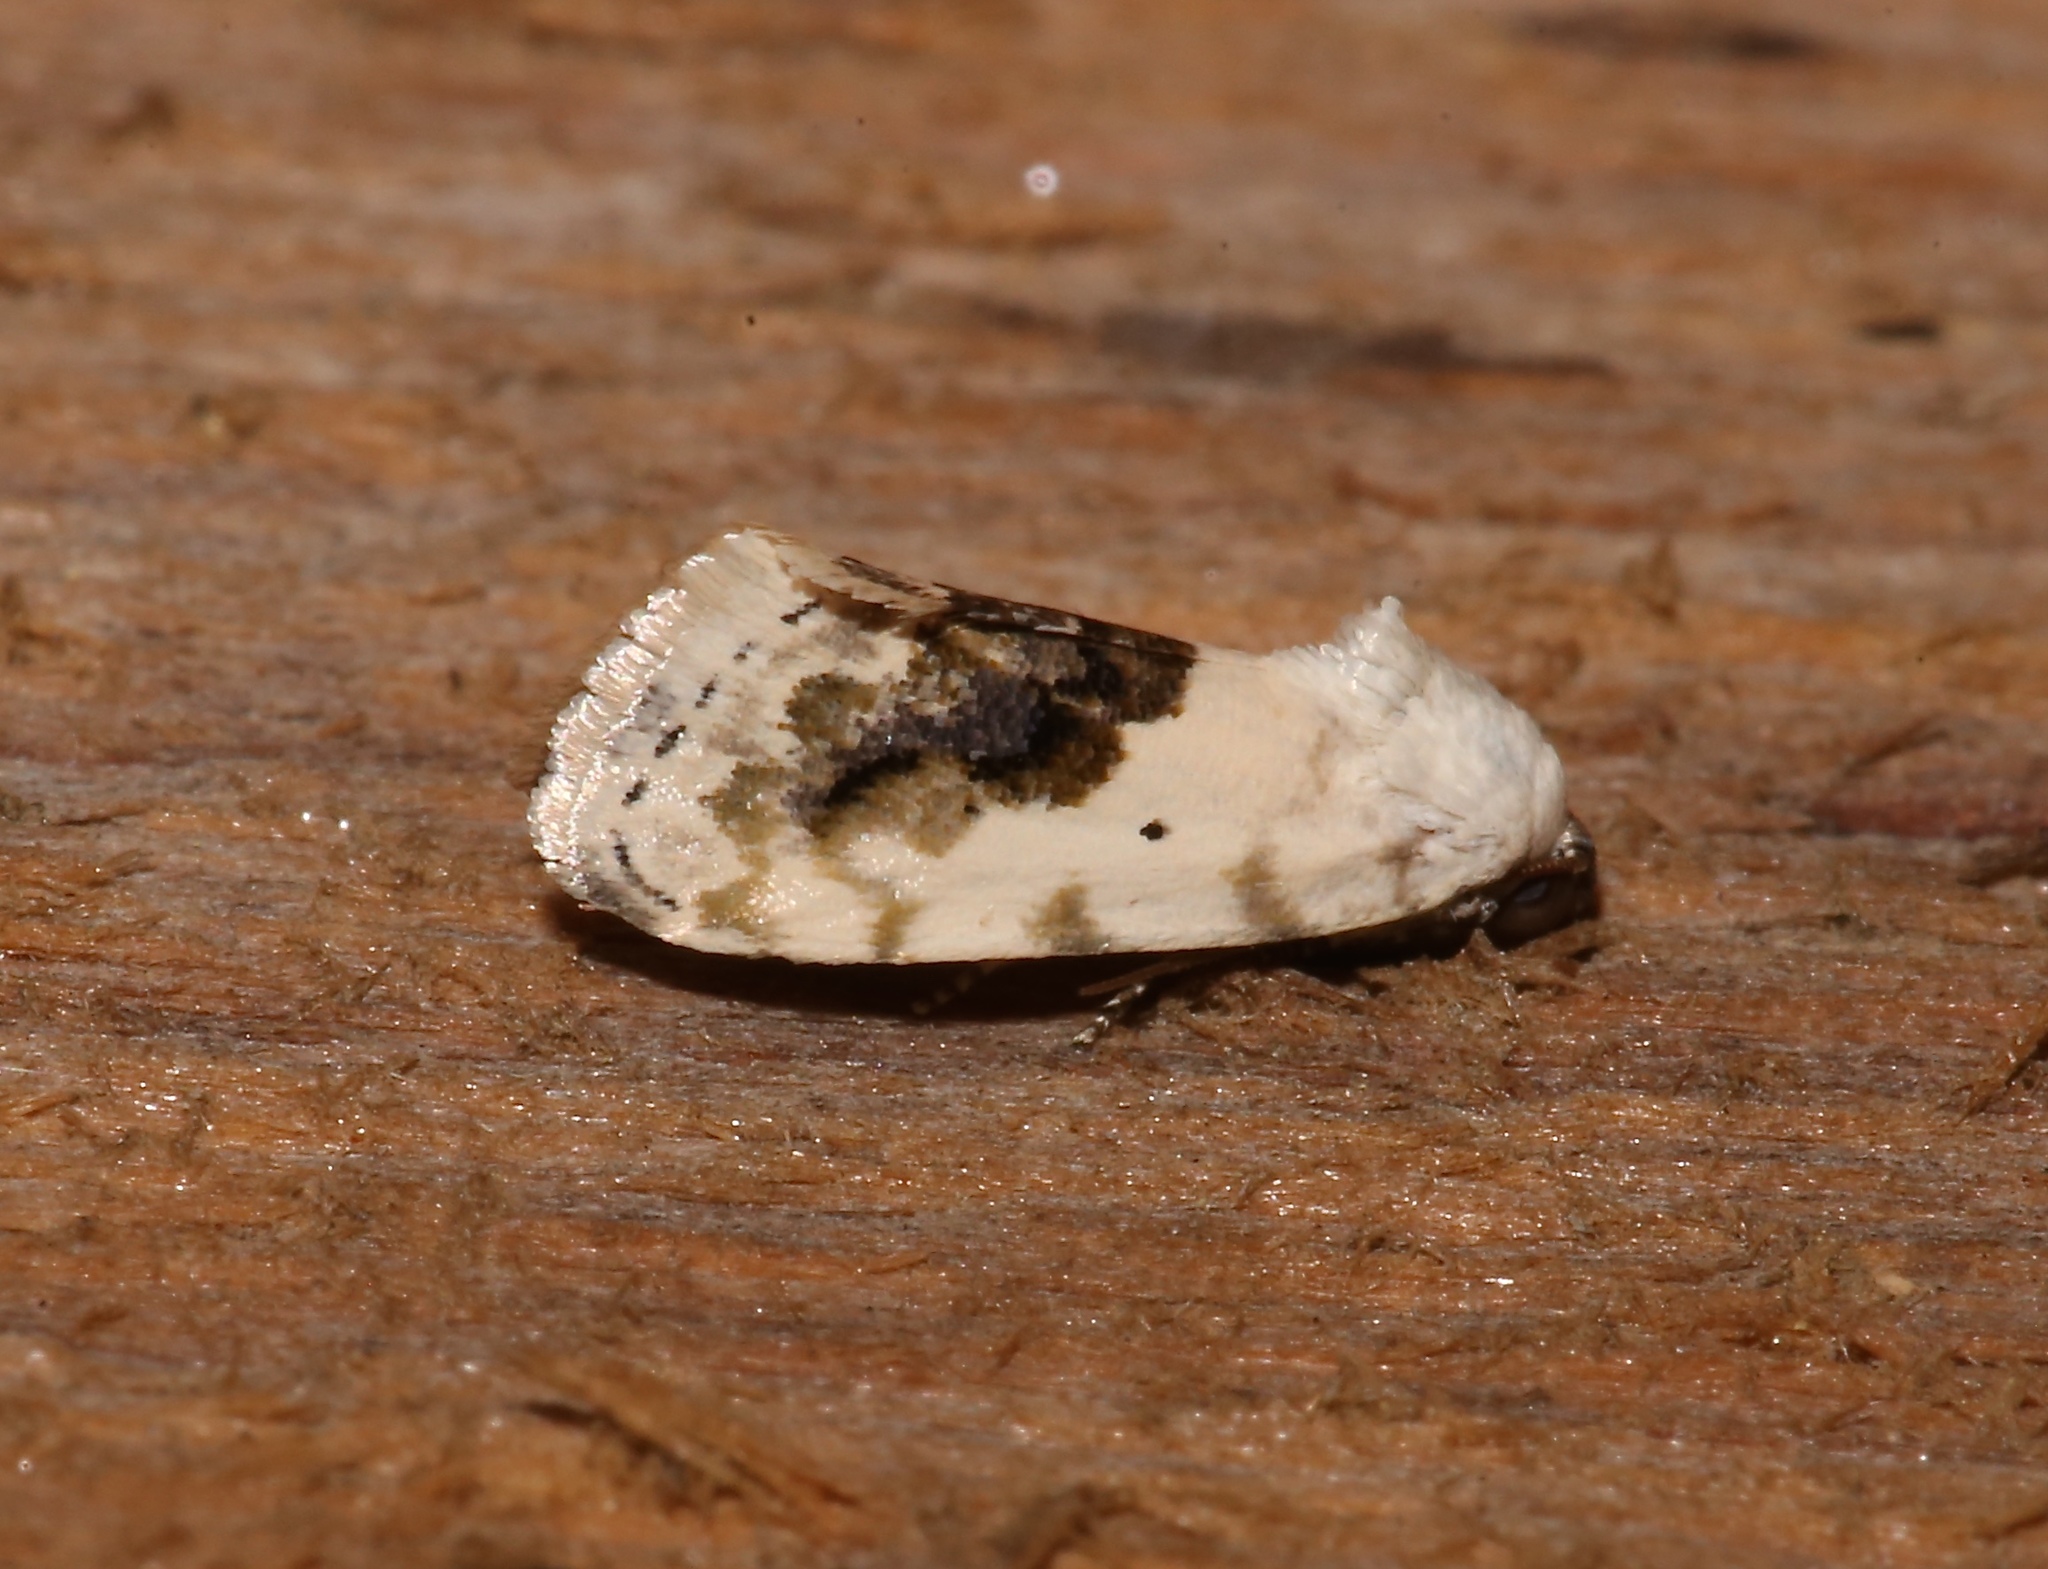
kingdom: Animalia
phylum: Arthropoda
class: Insecta
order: Lepidoptera
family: Noctuidae
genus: Acontia
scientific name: Acontia erastrioides
